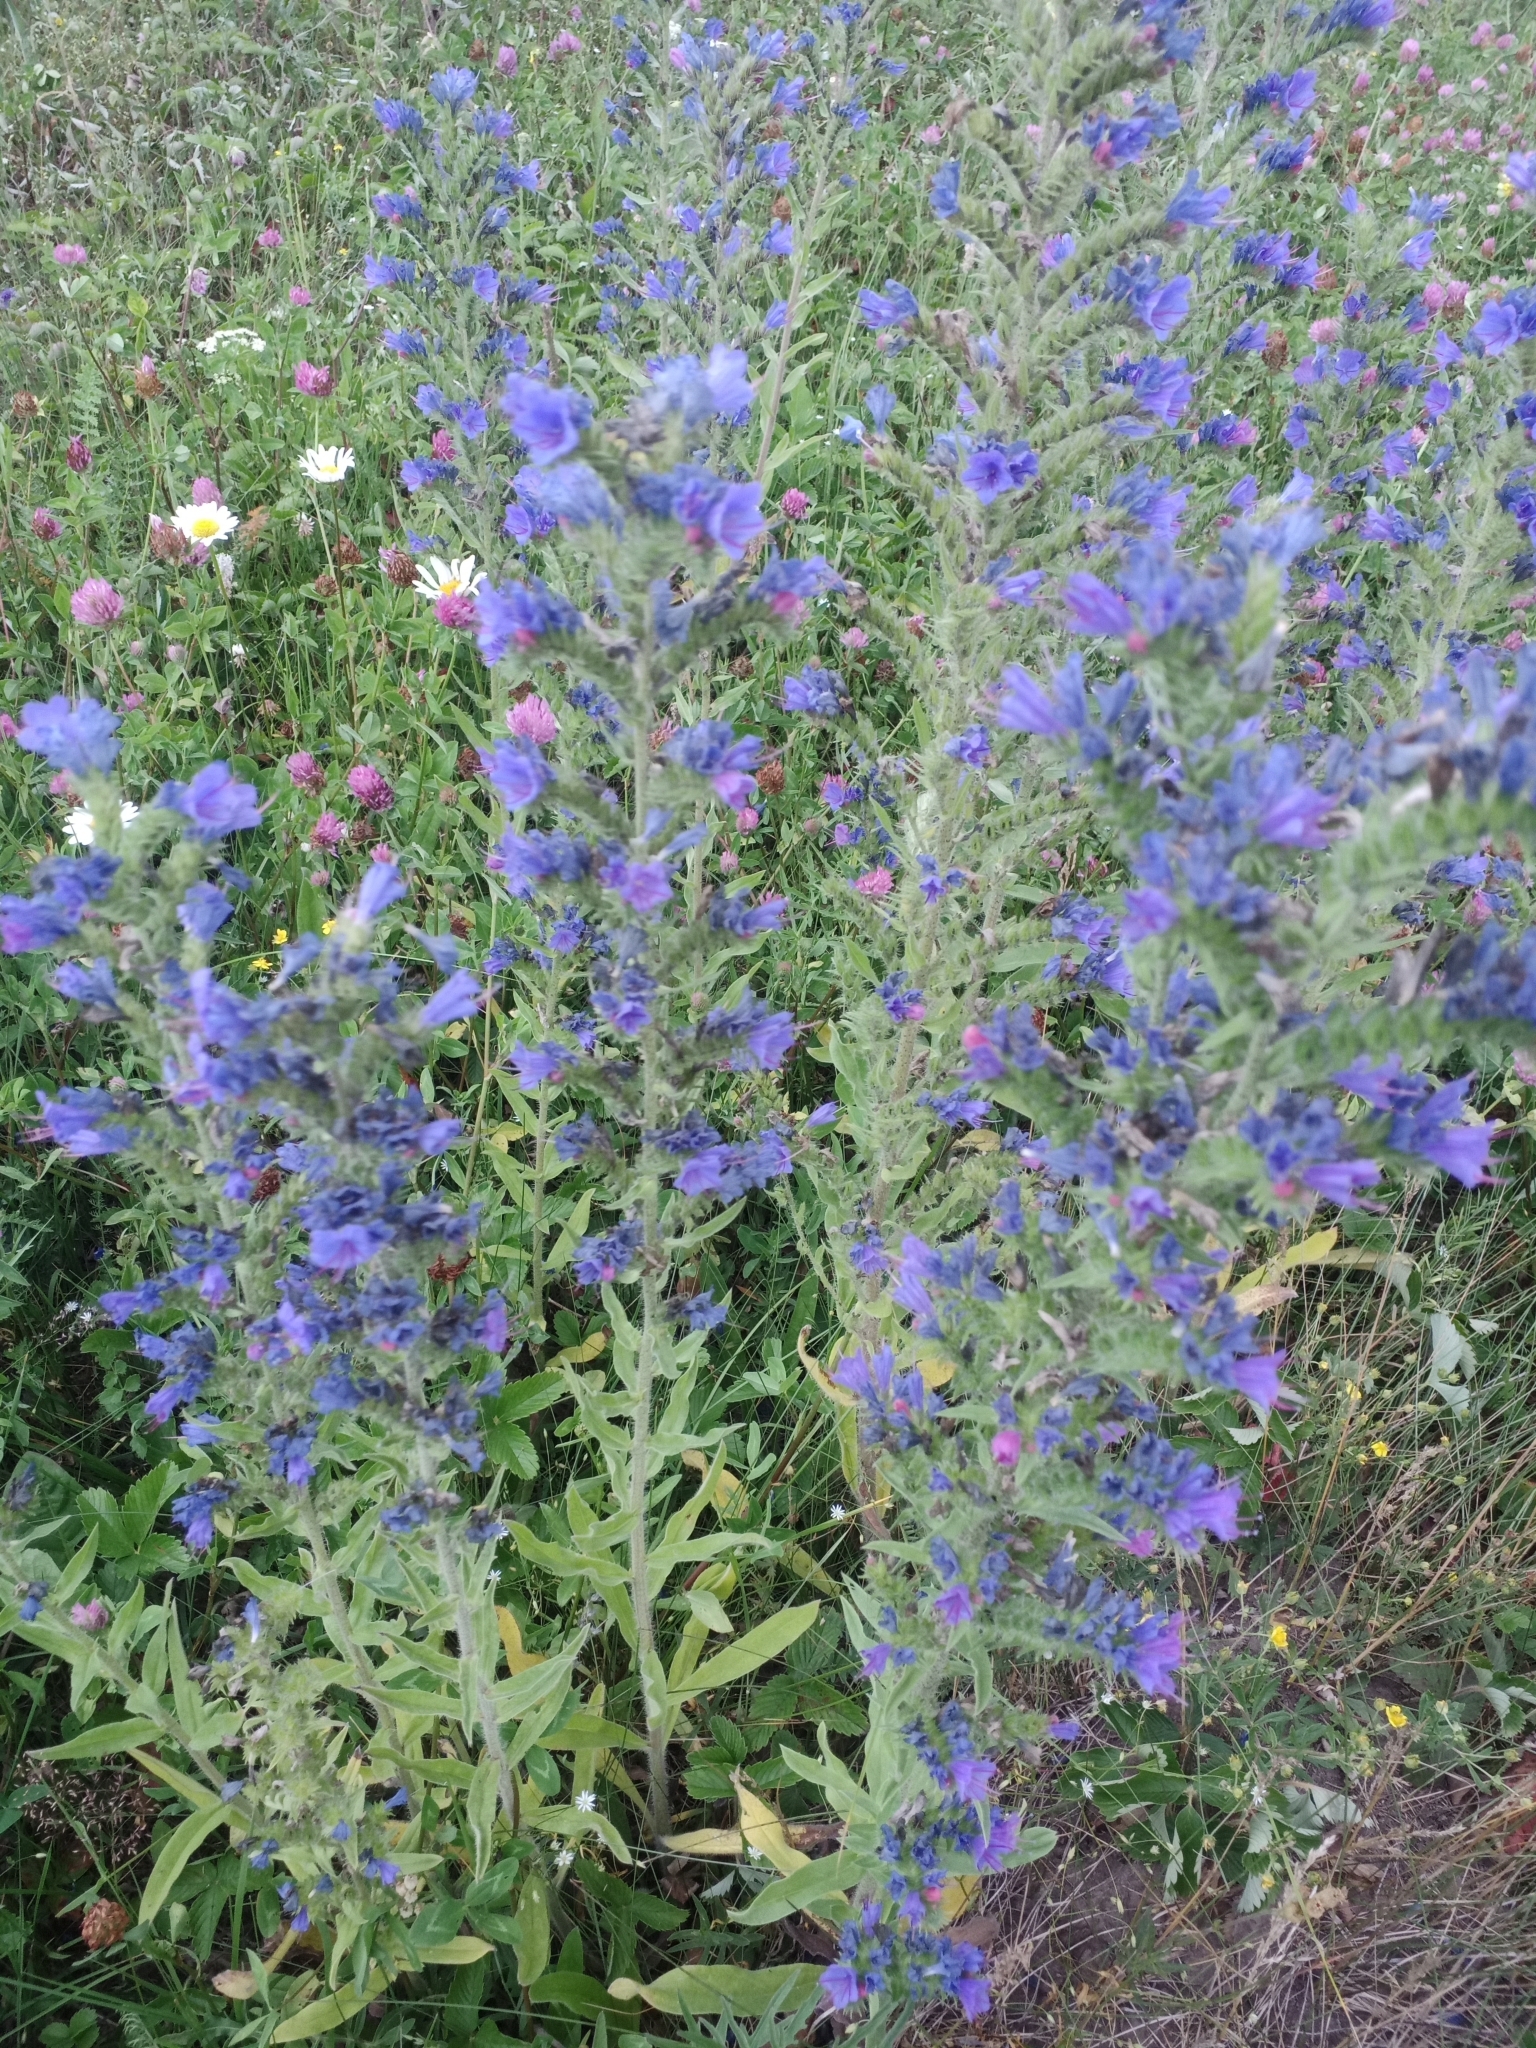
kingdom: Plantae
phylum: Tracheophyta
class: Magnoliopsida
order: Boraginales
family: Boraginaceae
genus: Echium
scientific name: Echium vulgare
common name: Common viper's bugloss
